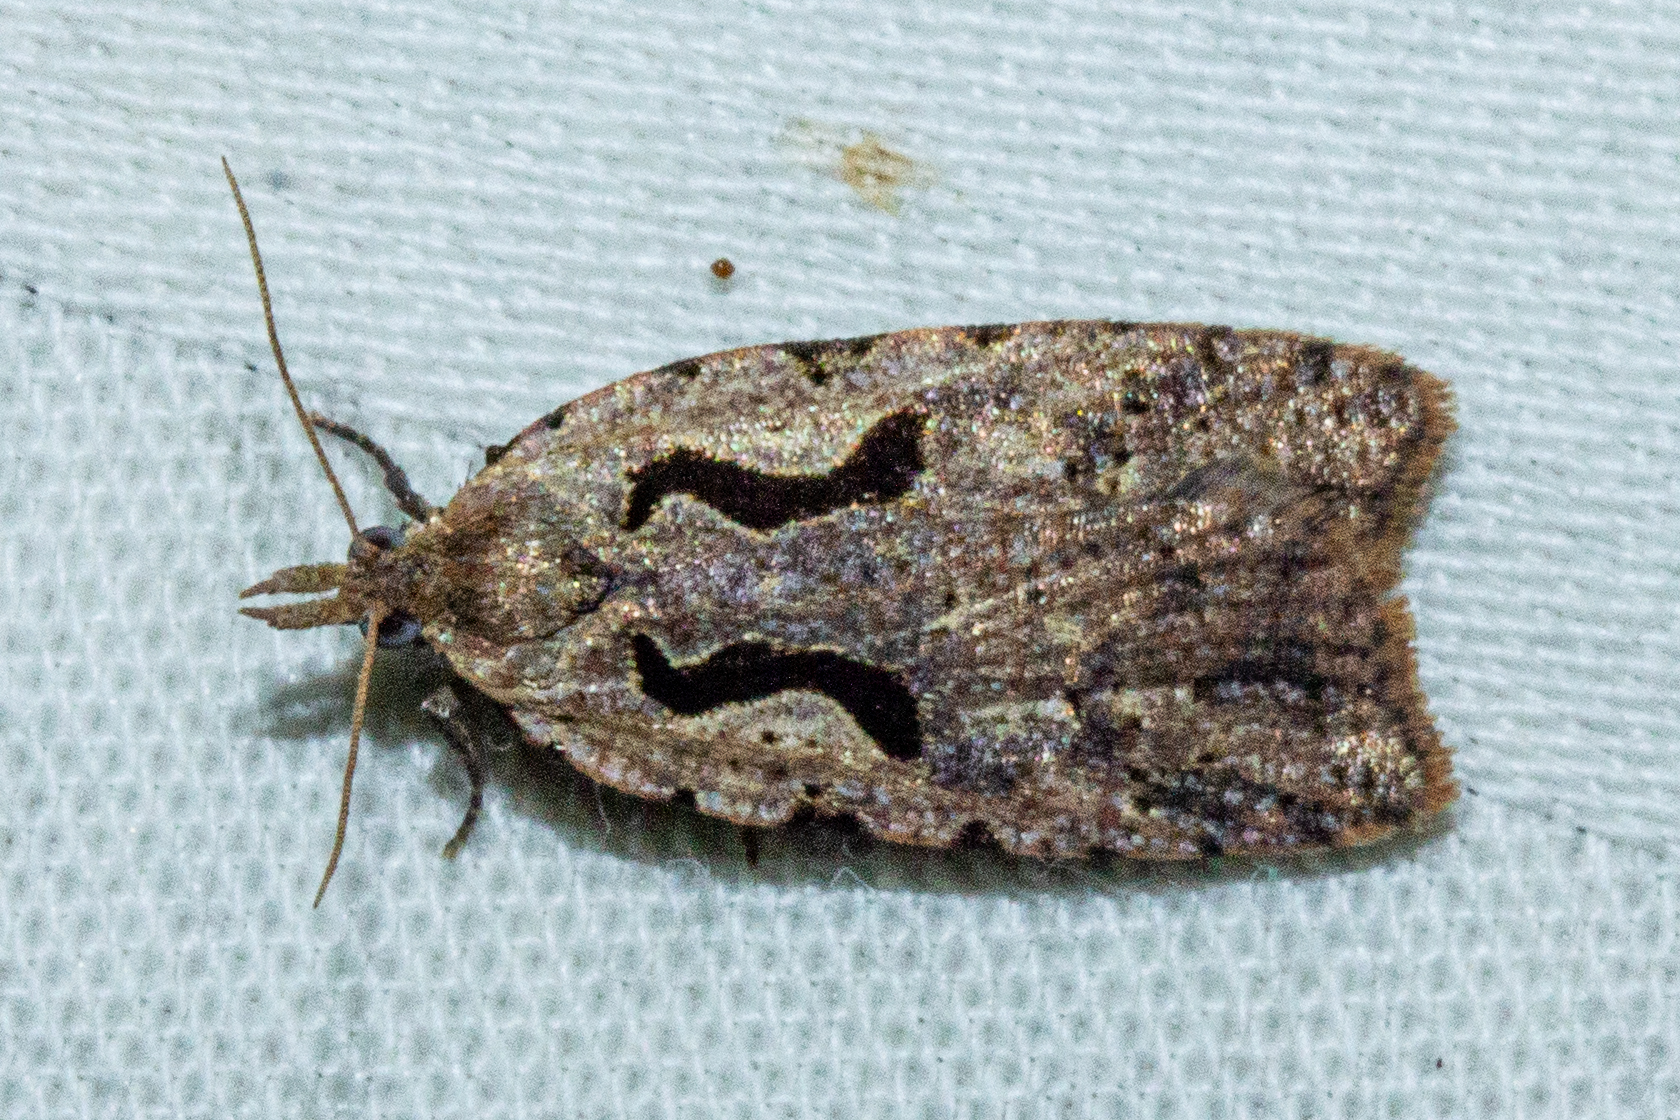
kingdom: Animalia
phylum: Arthropoda
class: Insecta
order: Lepidoptera
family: Tortricidae
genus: Cnephasia
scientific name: Cnephasia jactatana
